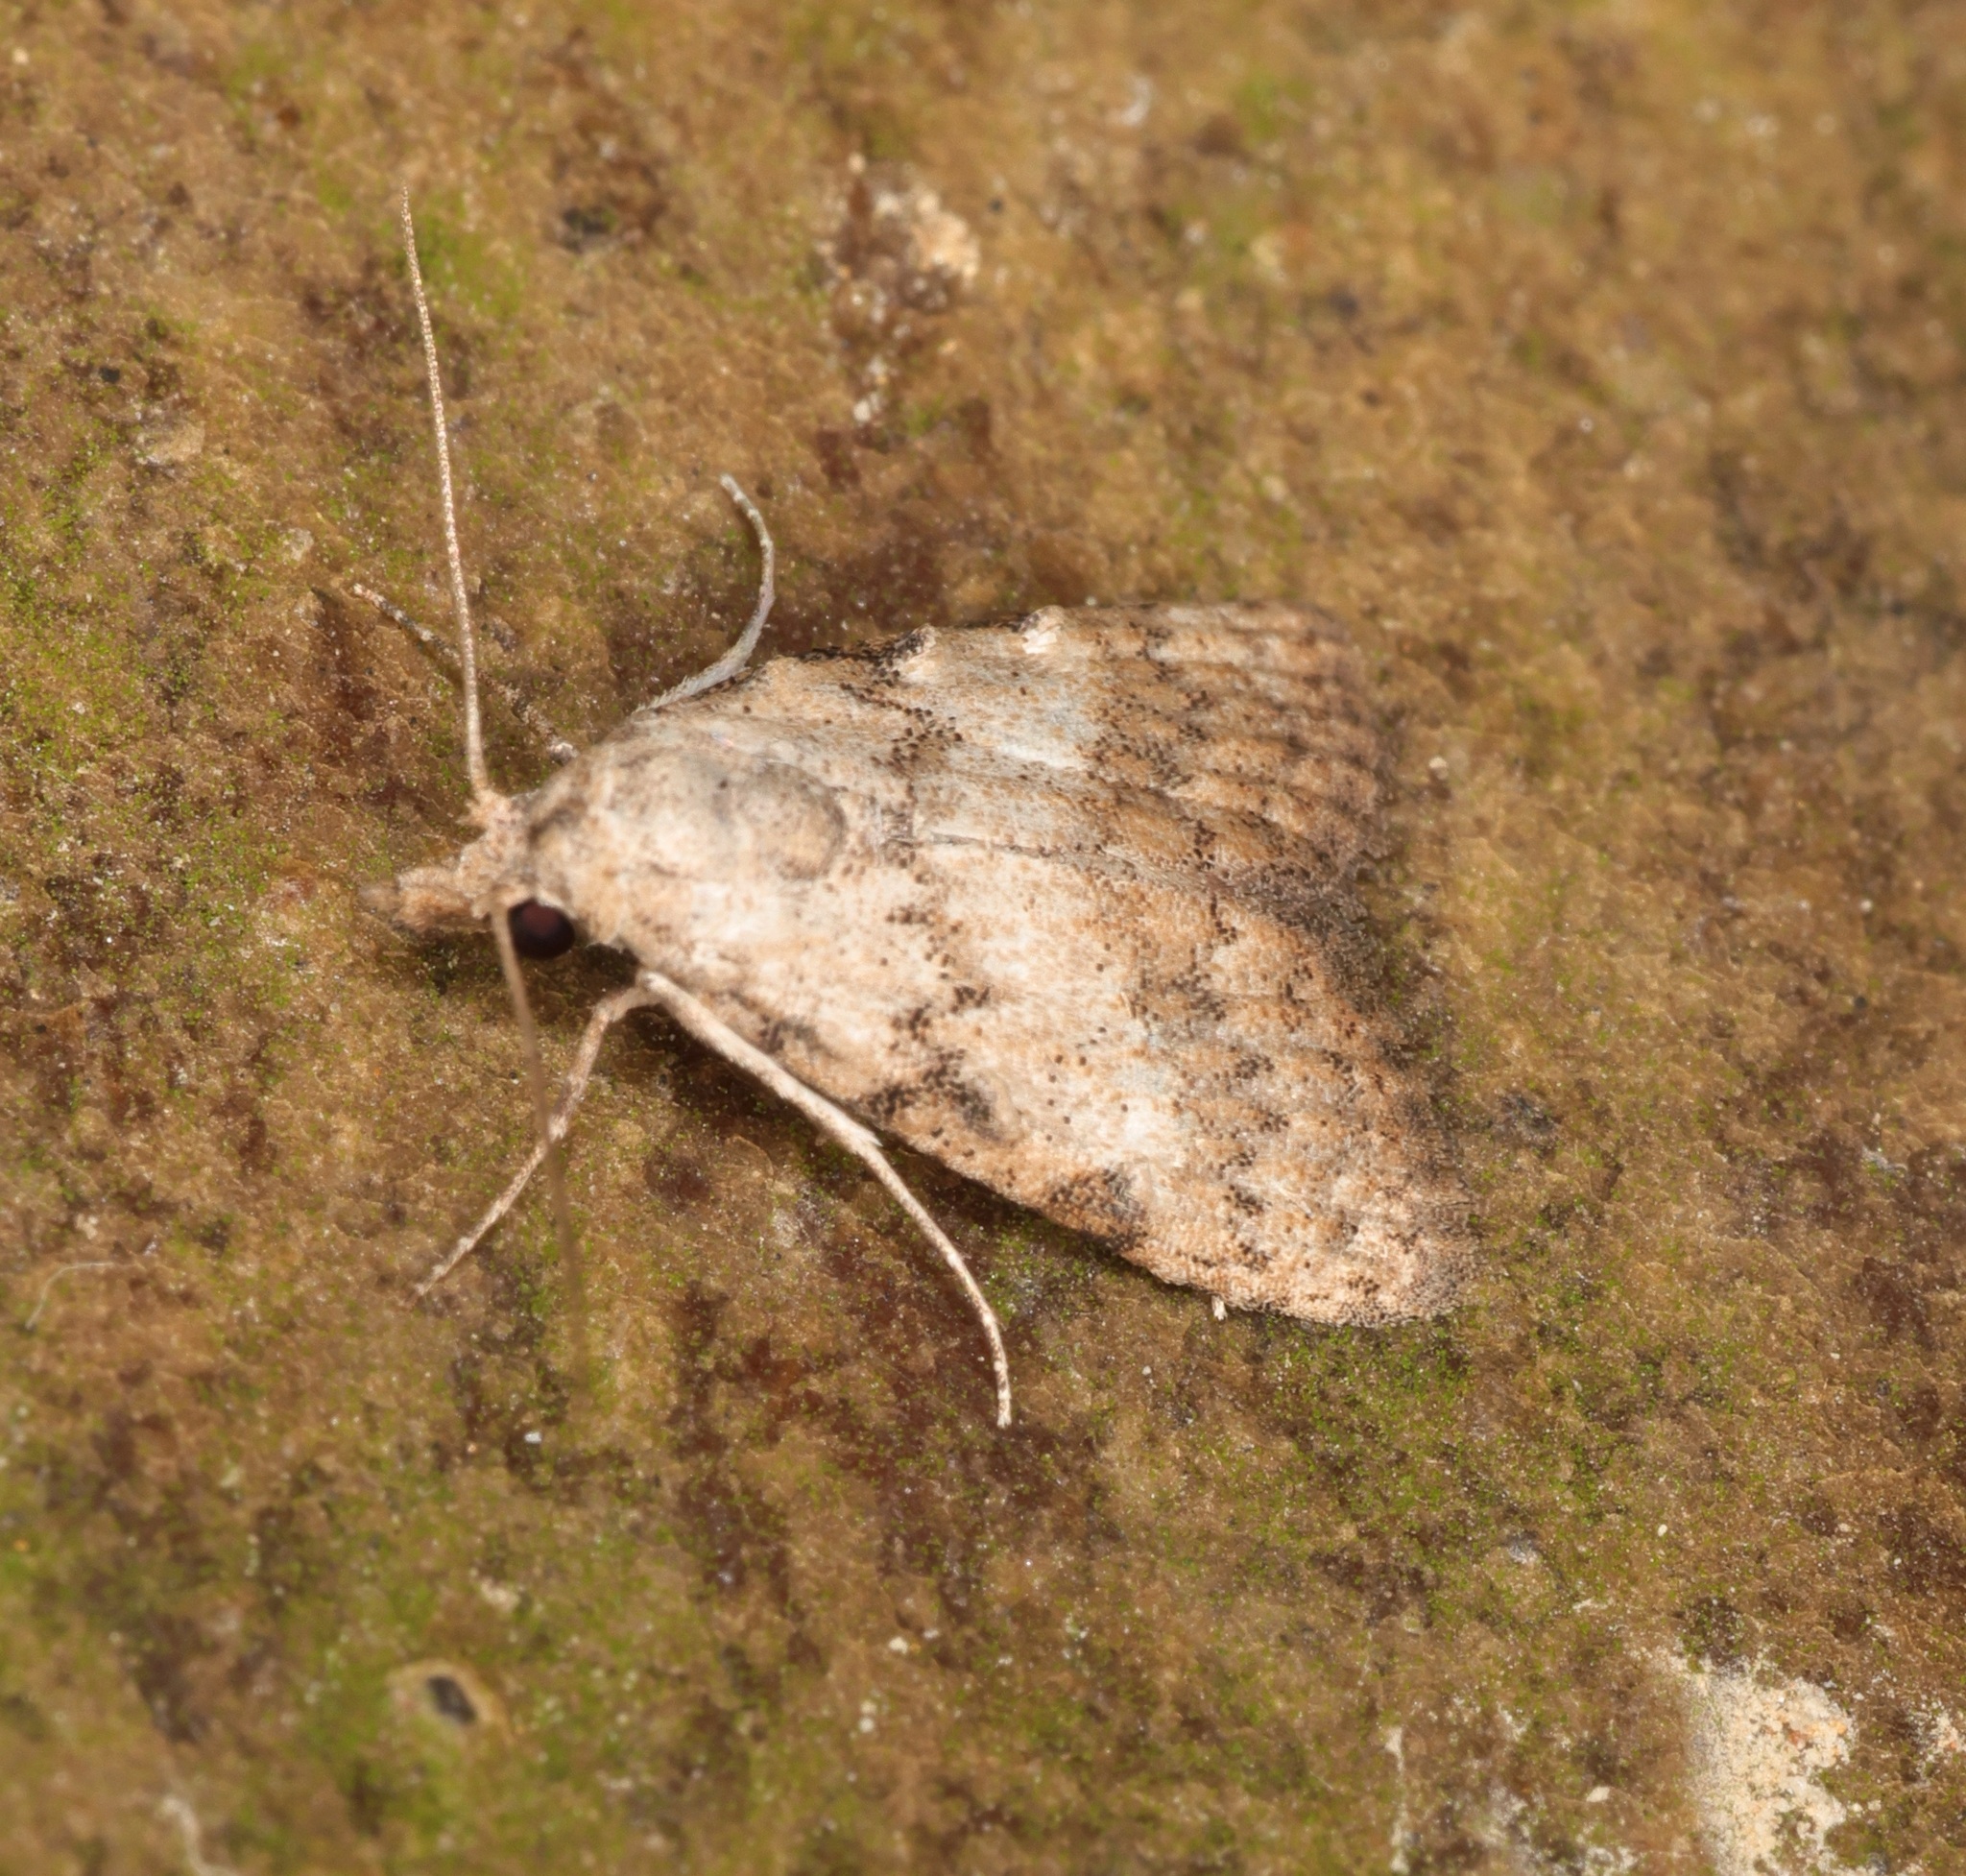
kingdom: Animalia
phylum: Arthropoda
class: Insecta
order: Lepidoptera
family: Nolidae
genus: Nola
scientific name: Nola ceylonica
